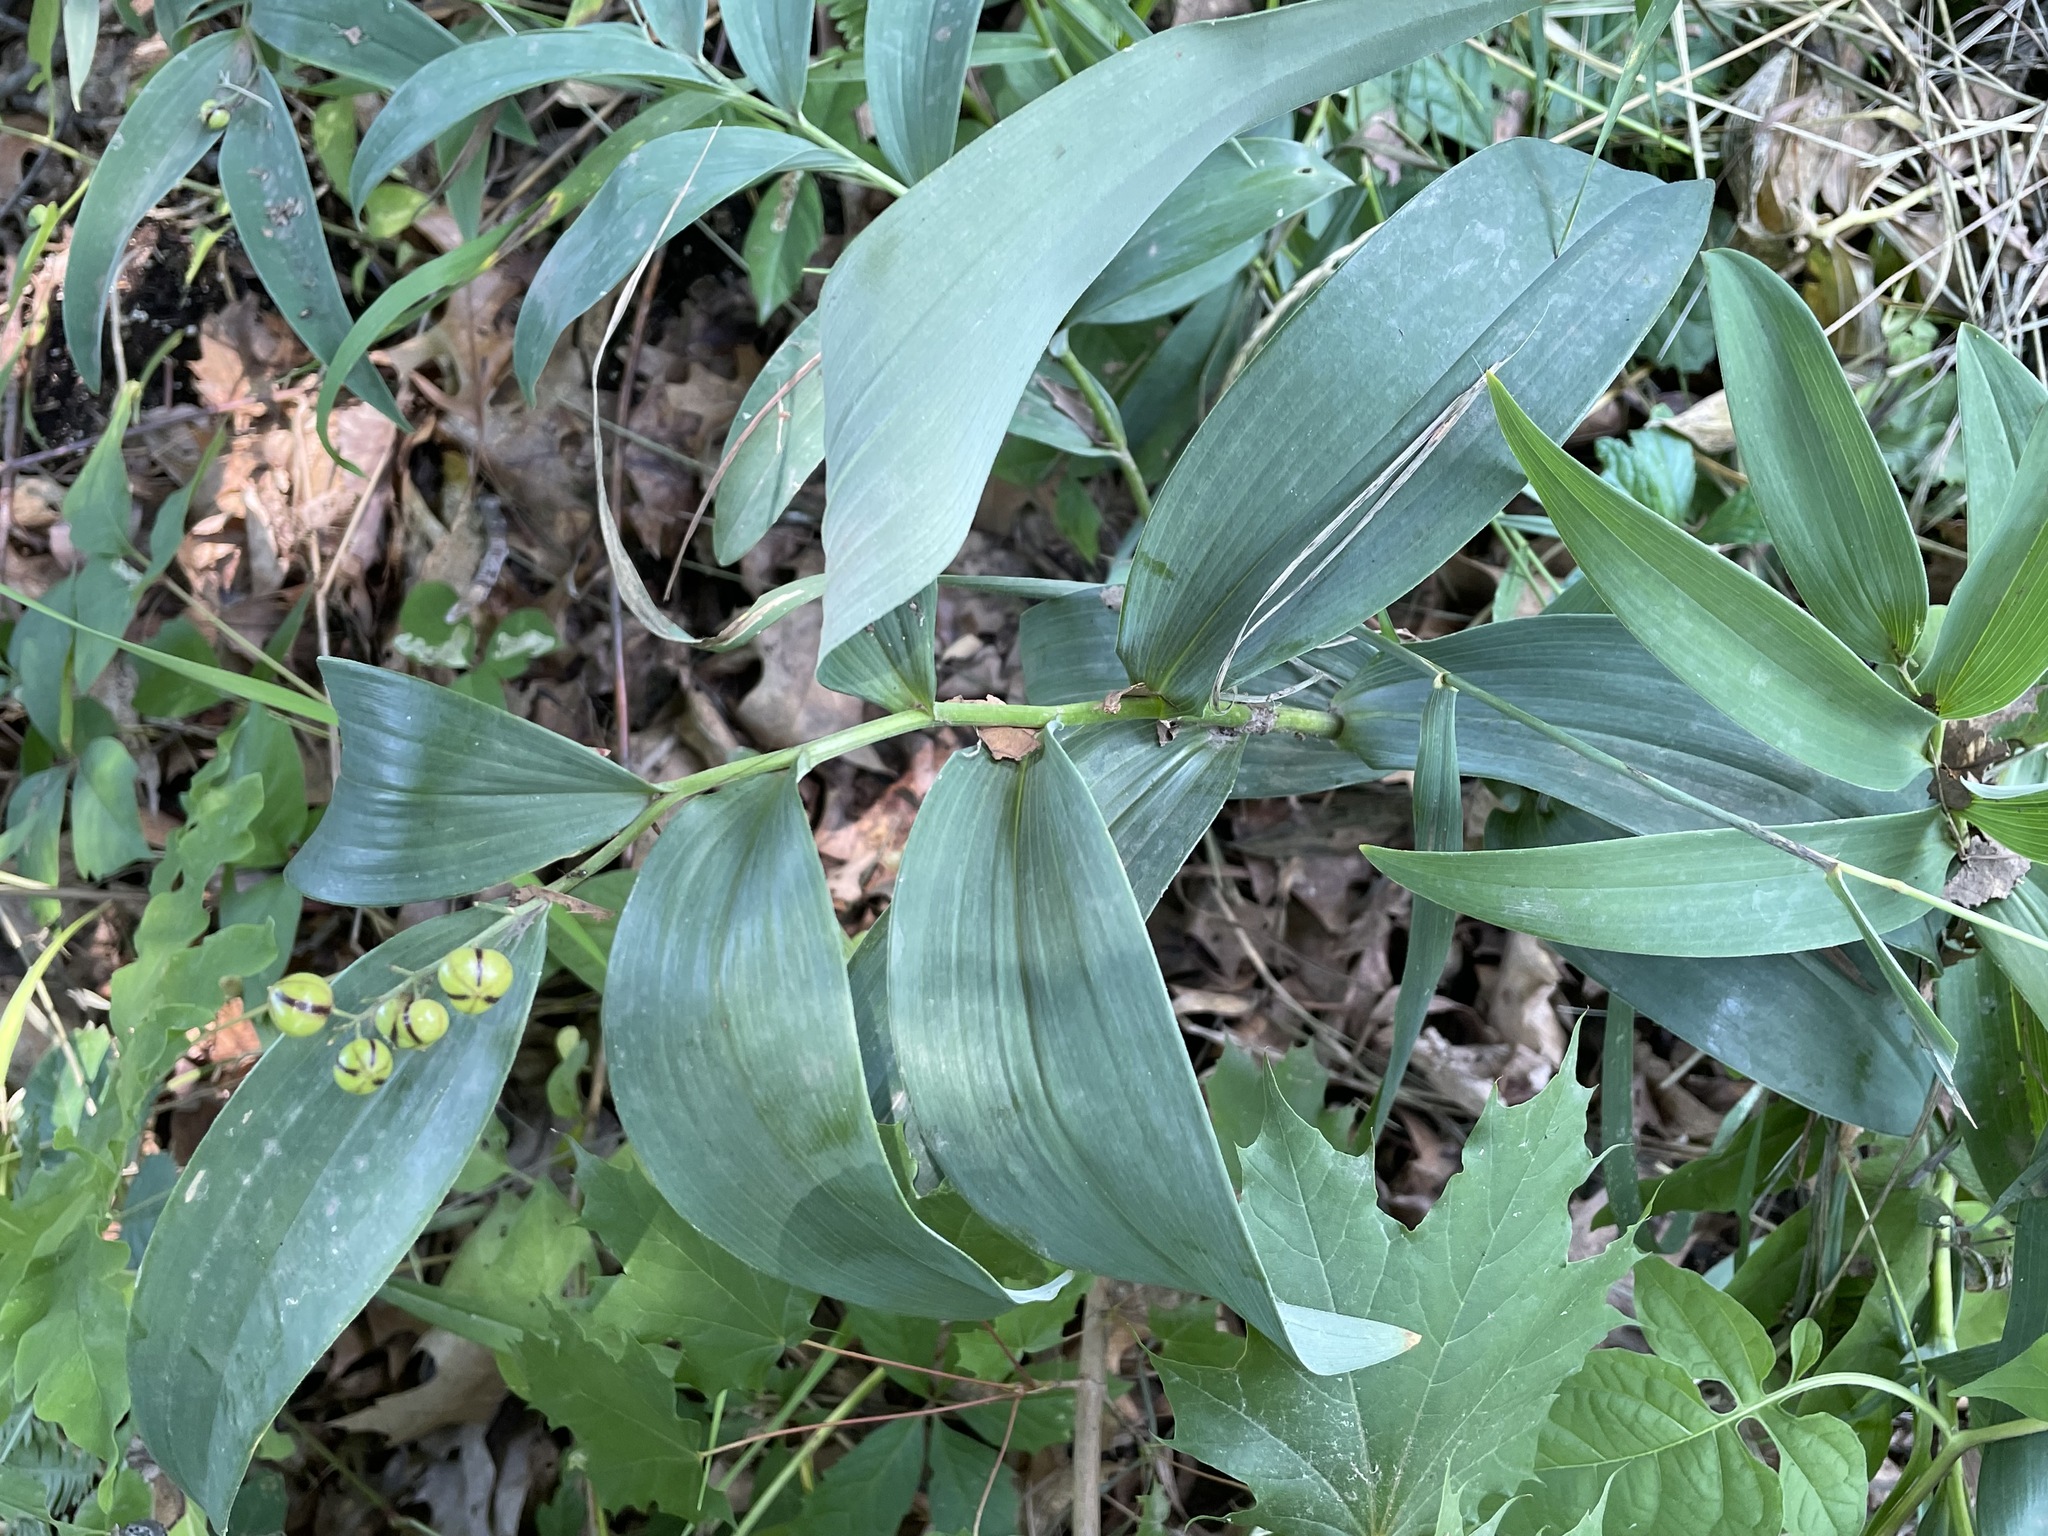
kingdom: Plantae
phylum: Tracheophyta
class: Liliopsida
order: Asparagales
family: Asparagaceae
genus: Maianthemum
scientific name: Maianthemum stellatum
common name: Little false solomon's seal
